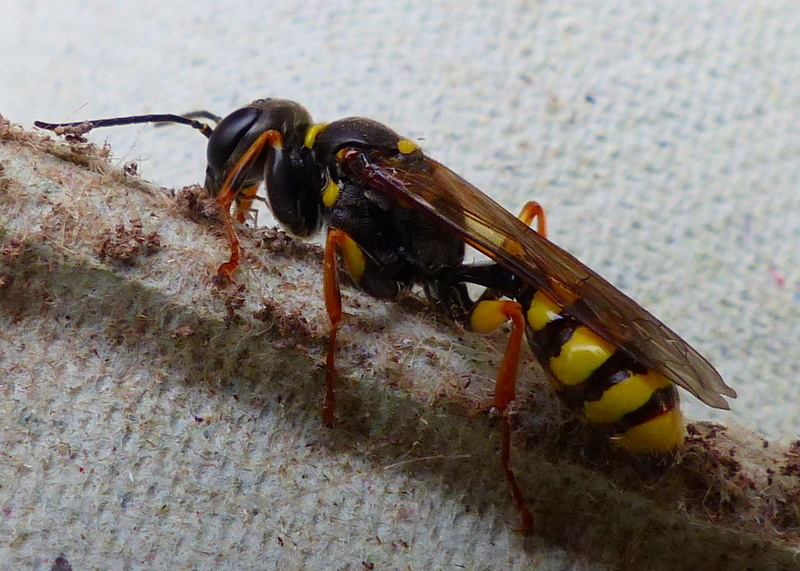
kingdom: Animalia
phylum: Arthropoda
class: Insecta
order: Hymenoptera
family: Crabronidae
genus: Mellinus
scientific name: Mellinus arvensis
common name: Field digger wasp
